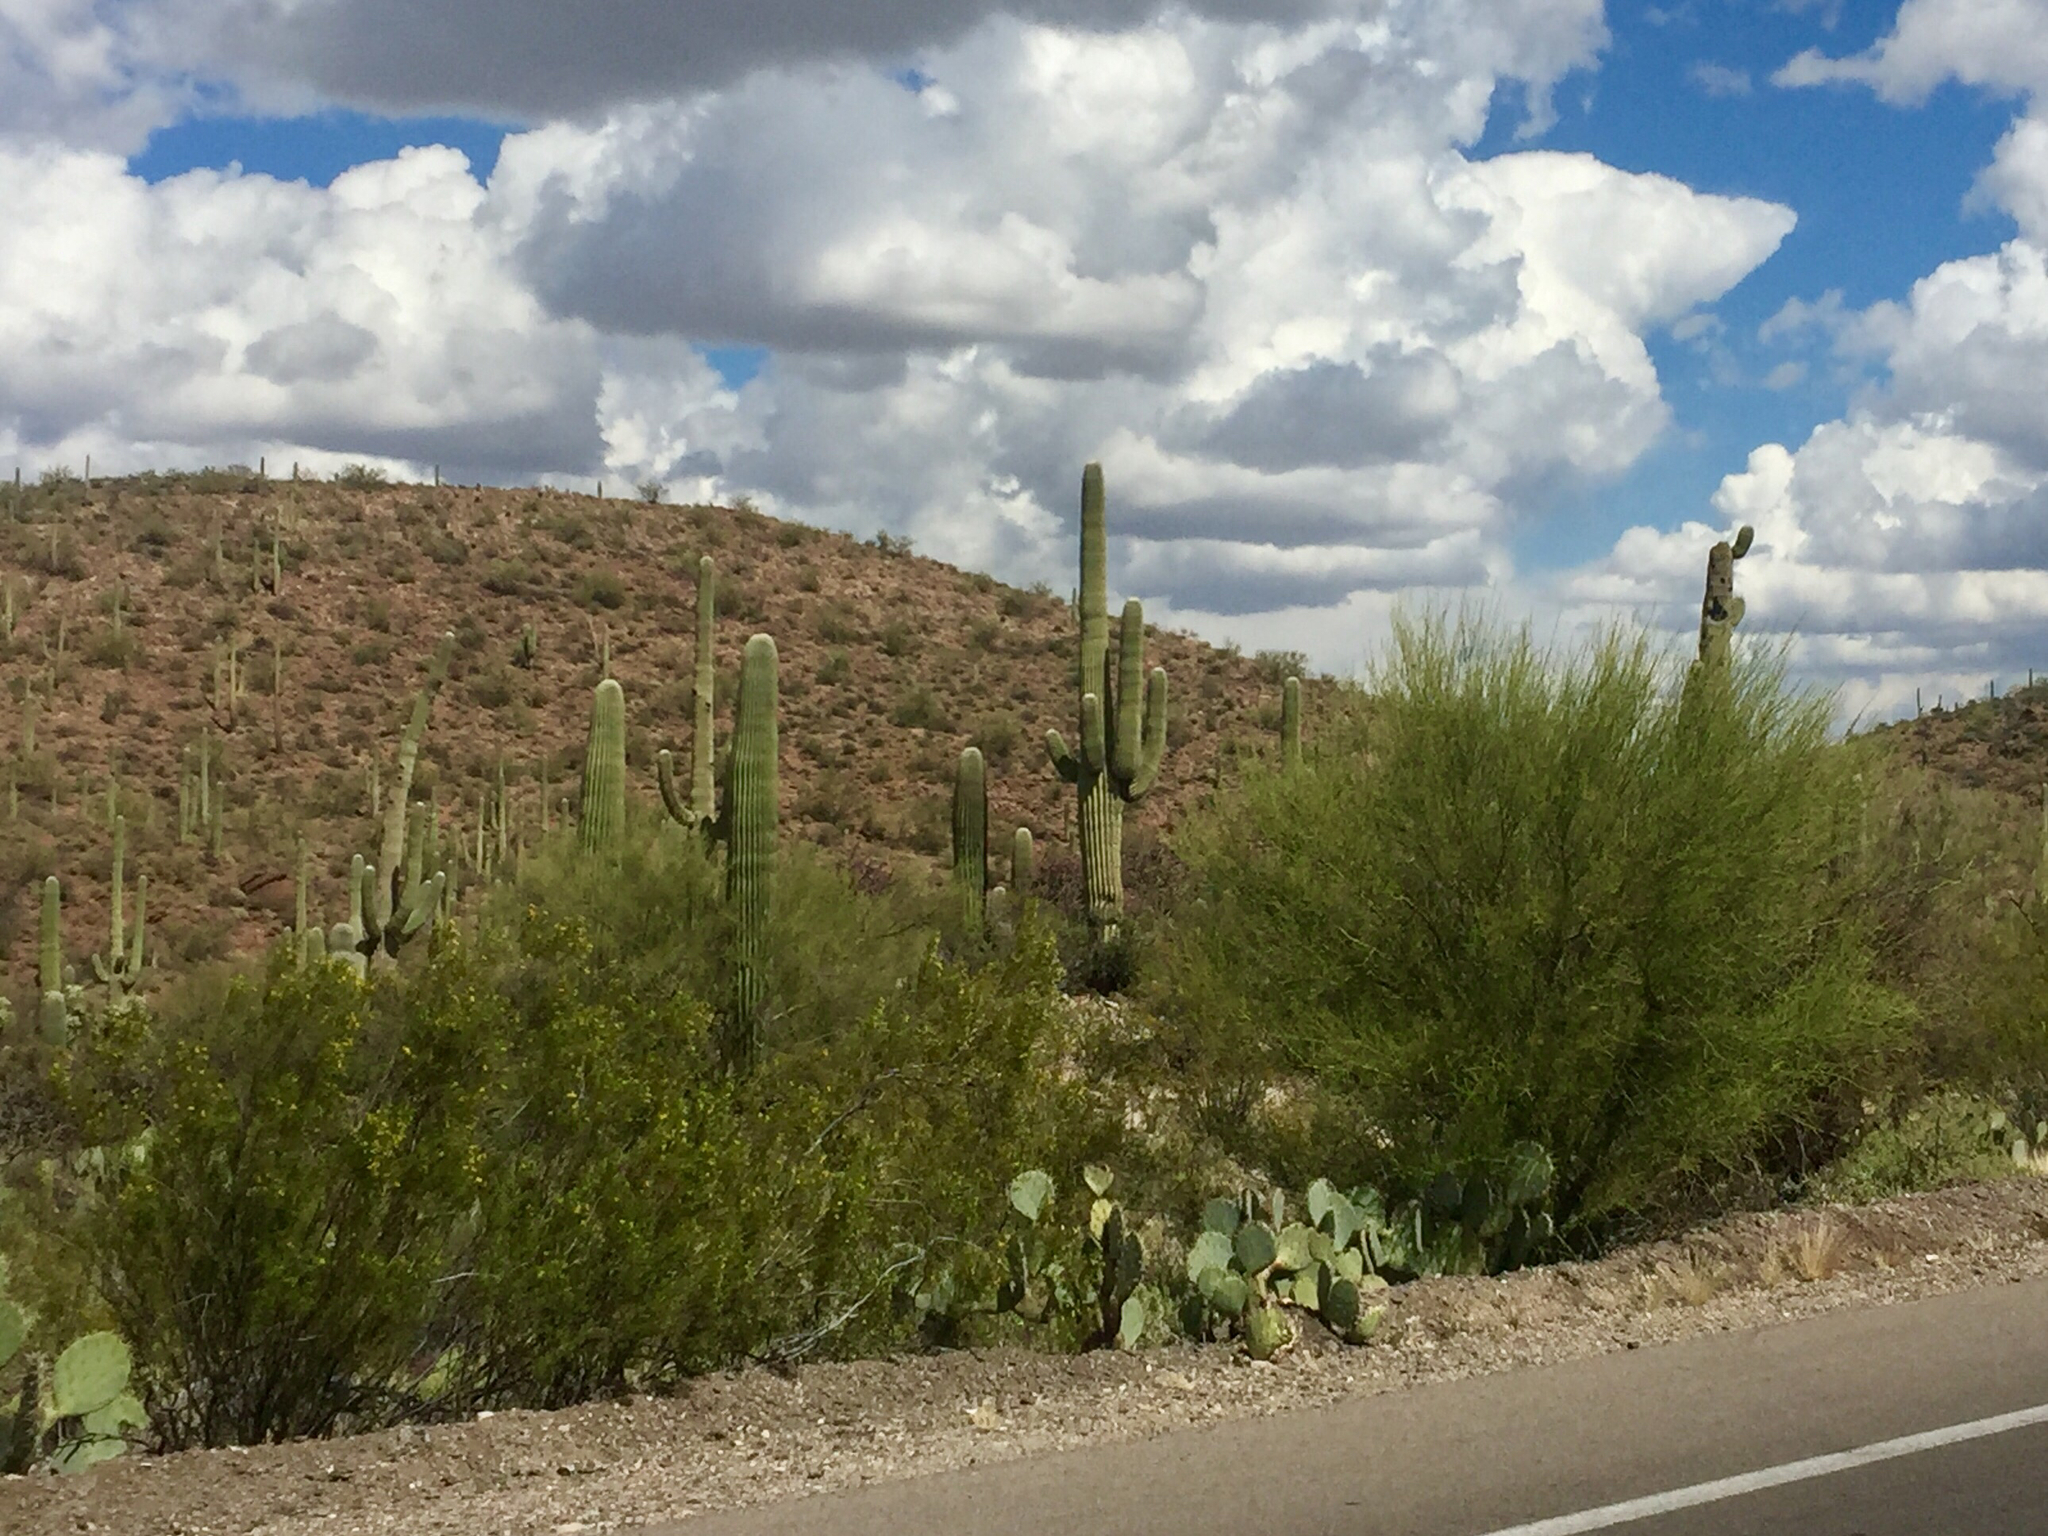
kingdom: Plantae
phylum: Tracheophyta
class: Magnoliopsida
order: Fabales
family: Fabaceae
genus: Parkinsonia
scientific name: Parkinsonia microphylla
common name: Yellow paloverde
